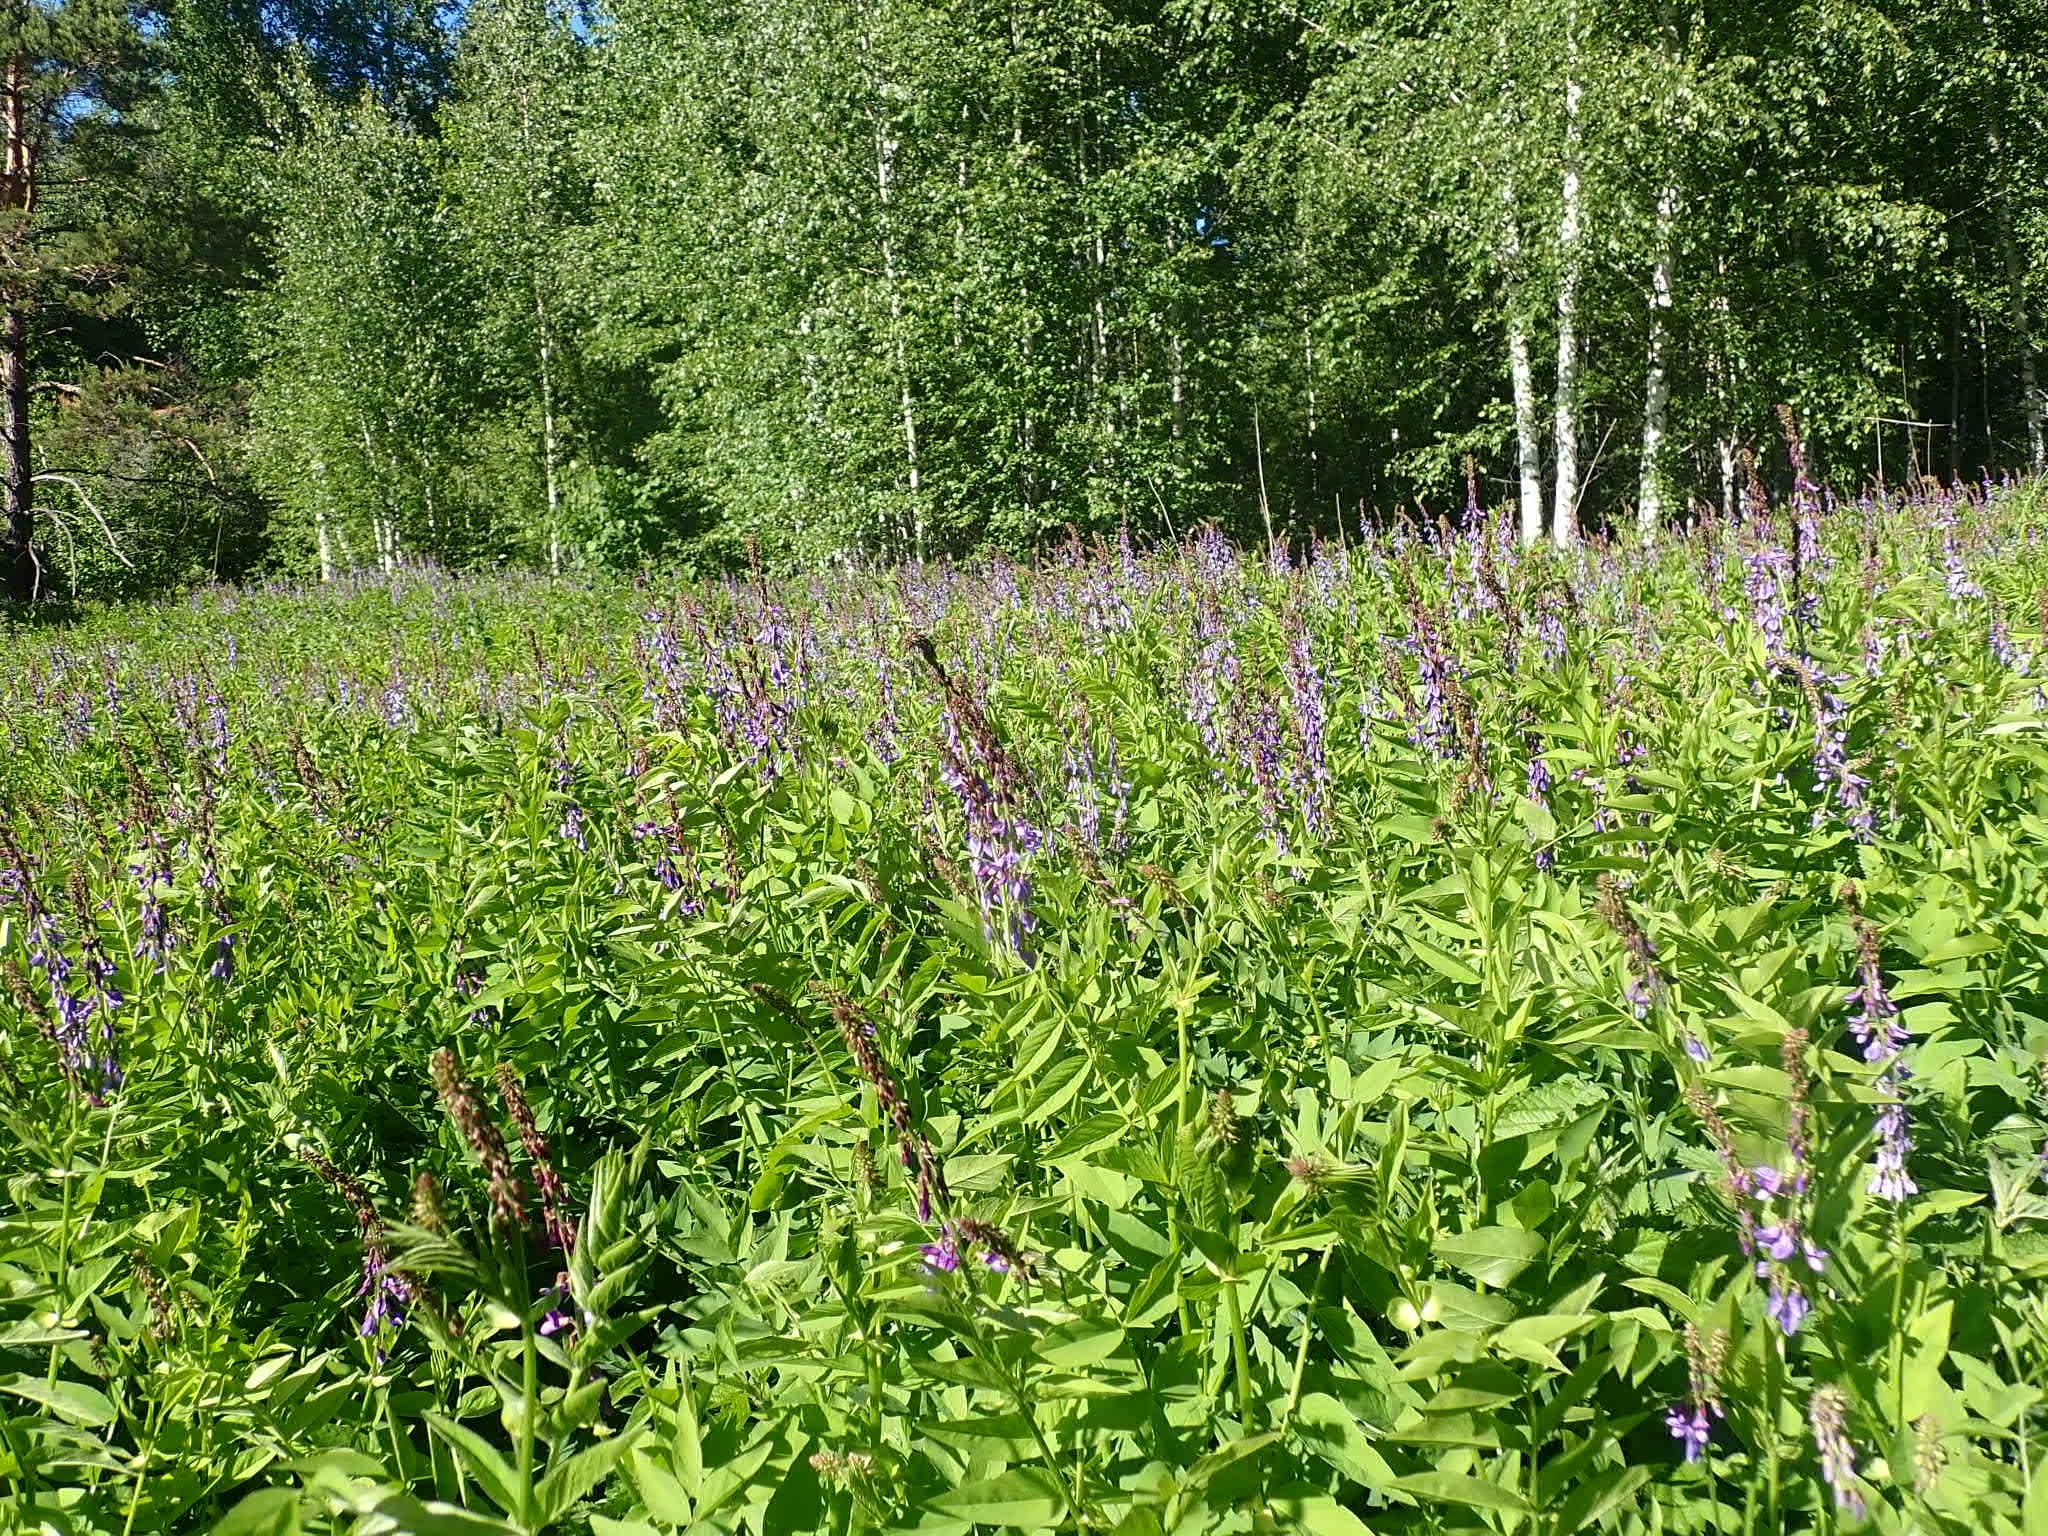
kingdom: Plantae
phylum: Tracheophyta
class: Magnoliopsida
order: Fabales
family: Fabaceae
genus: Galega
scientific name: Galega orientalis
